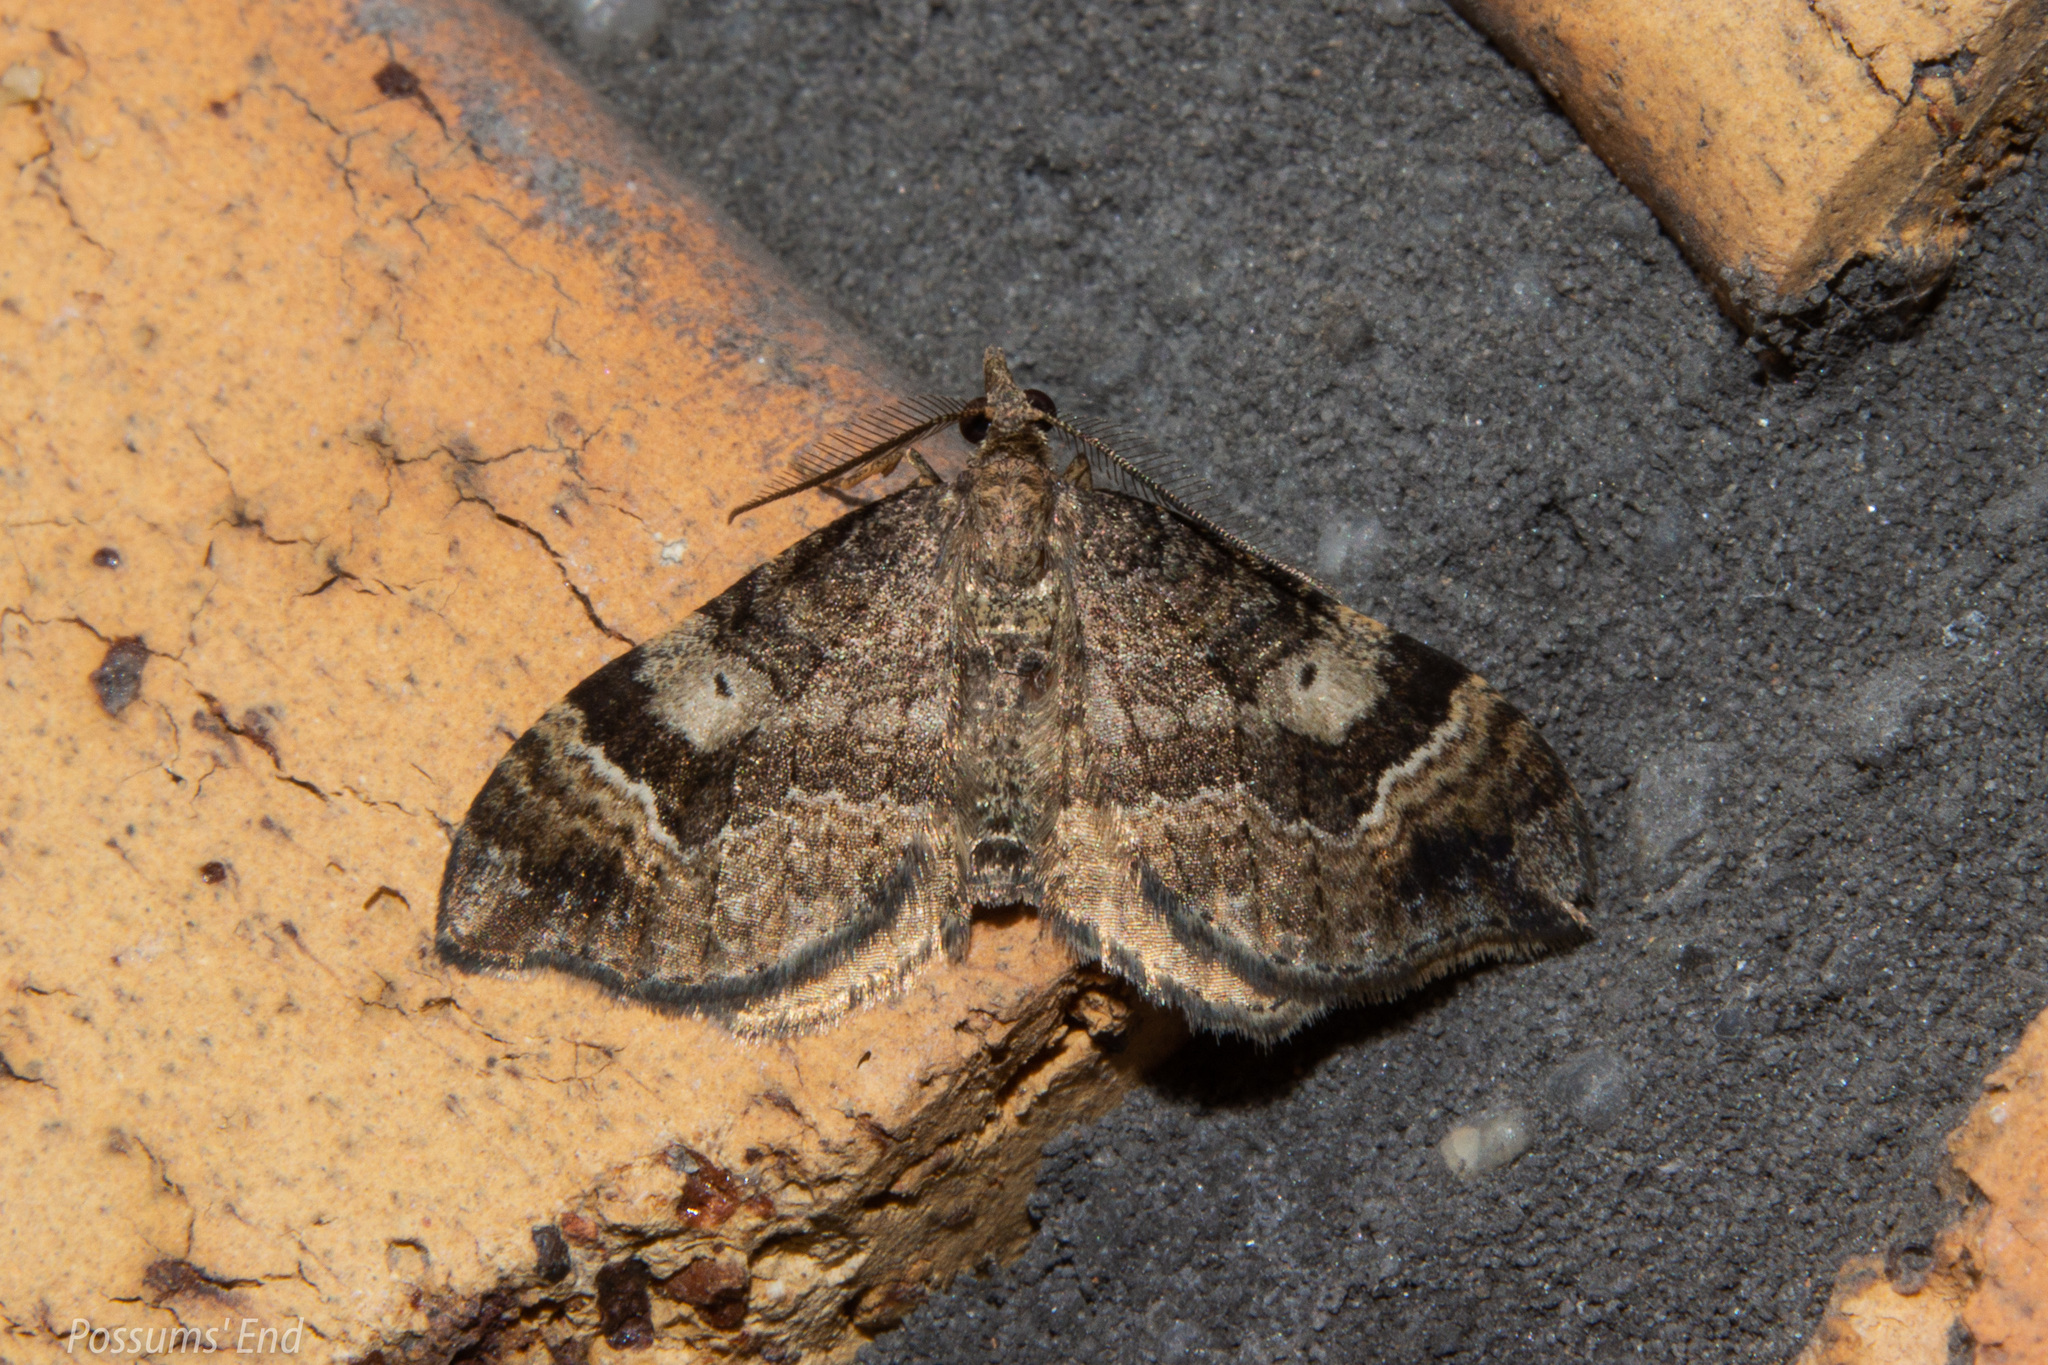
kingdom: Animalia
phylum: Arthropoda
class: Insecta
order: Lepidoptera
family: Geometridae
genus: Homodotis
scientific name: Homodotis megaspilata
